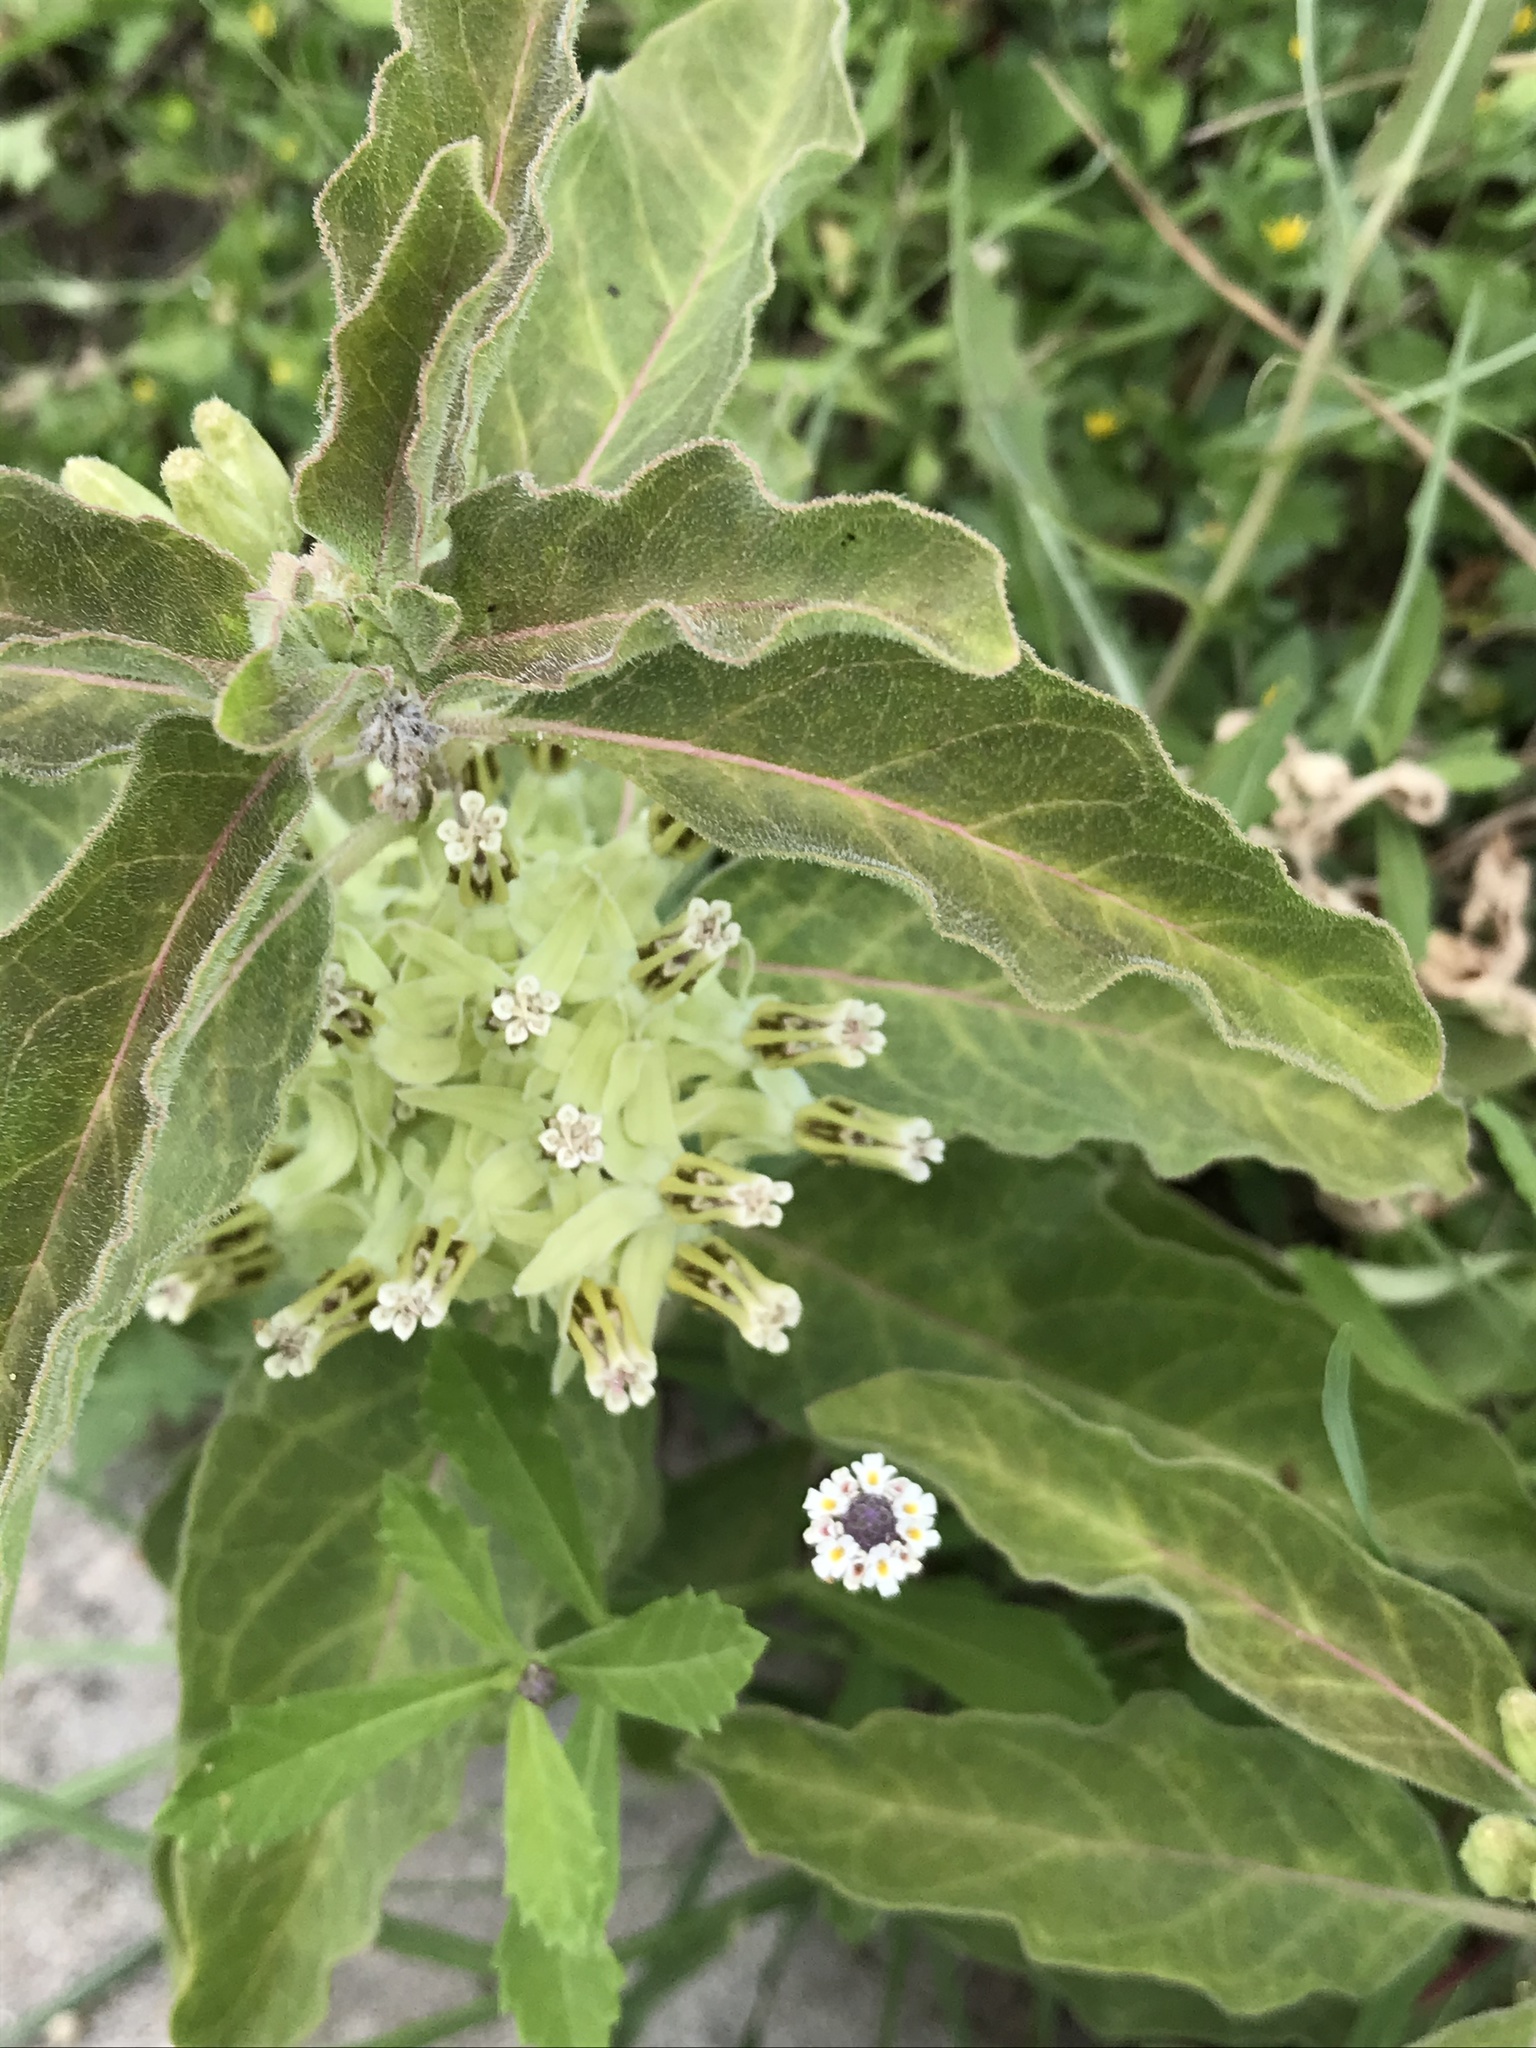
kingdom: Plantae
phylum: Tracheophyta
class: Magnoliopsida
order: Gentianales
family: Apocynaceae
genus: Asclepias
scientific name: Asclepias oenotheroides
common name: Zizotes milkweed
